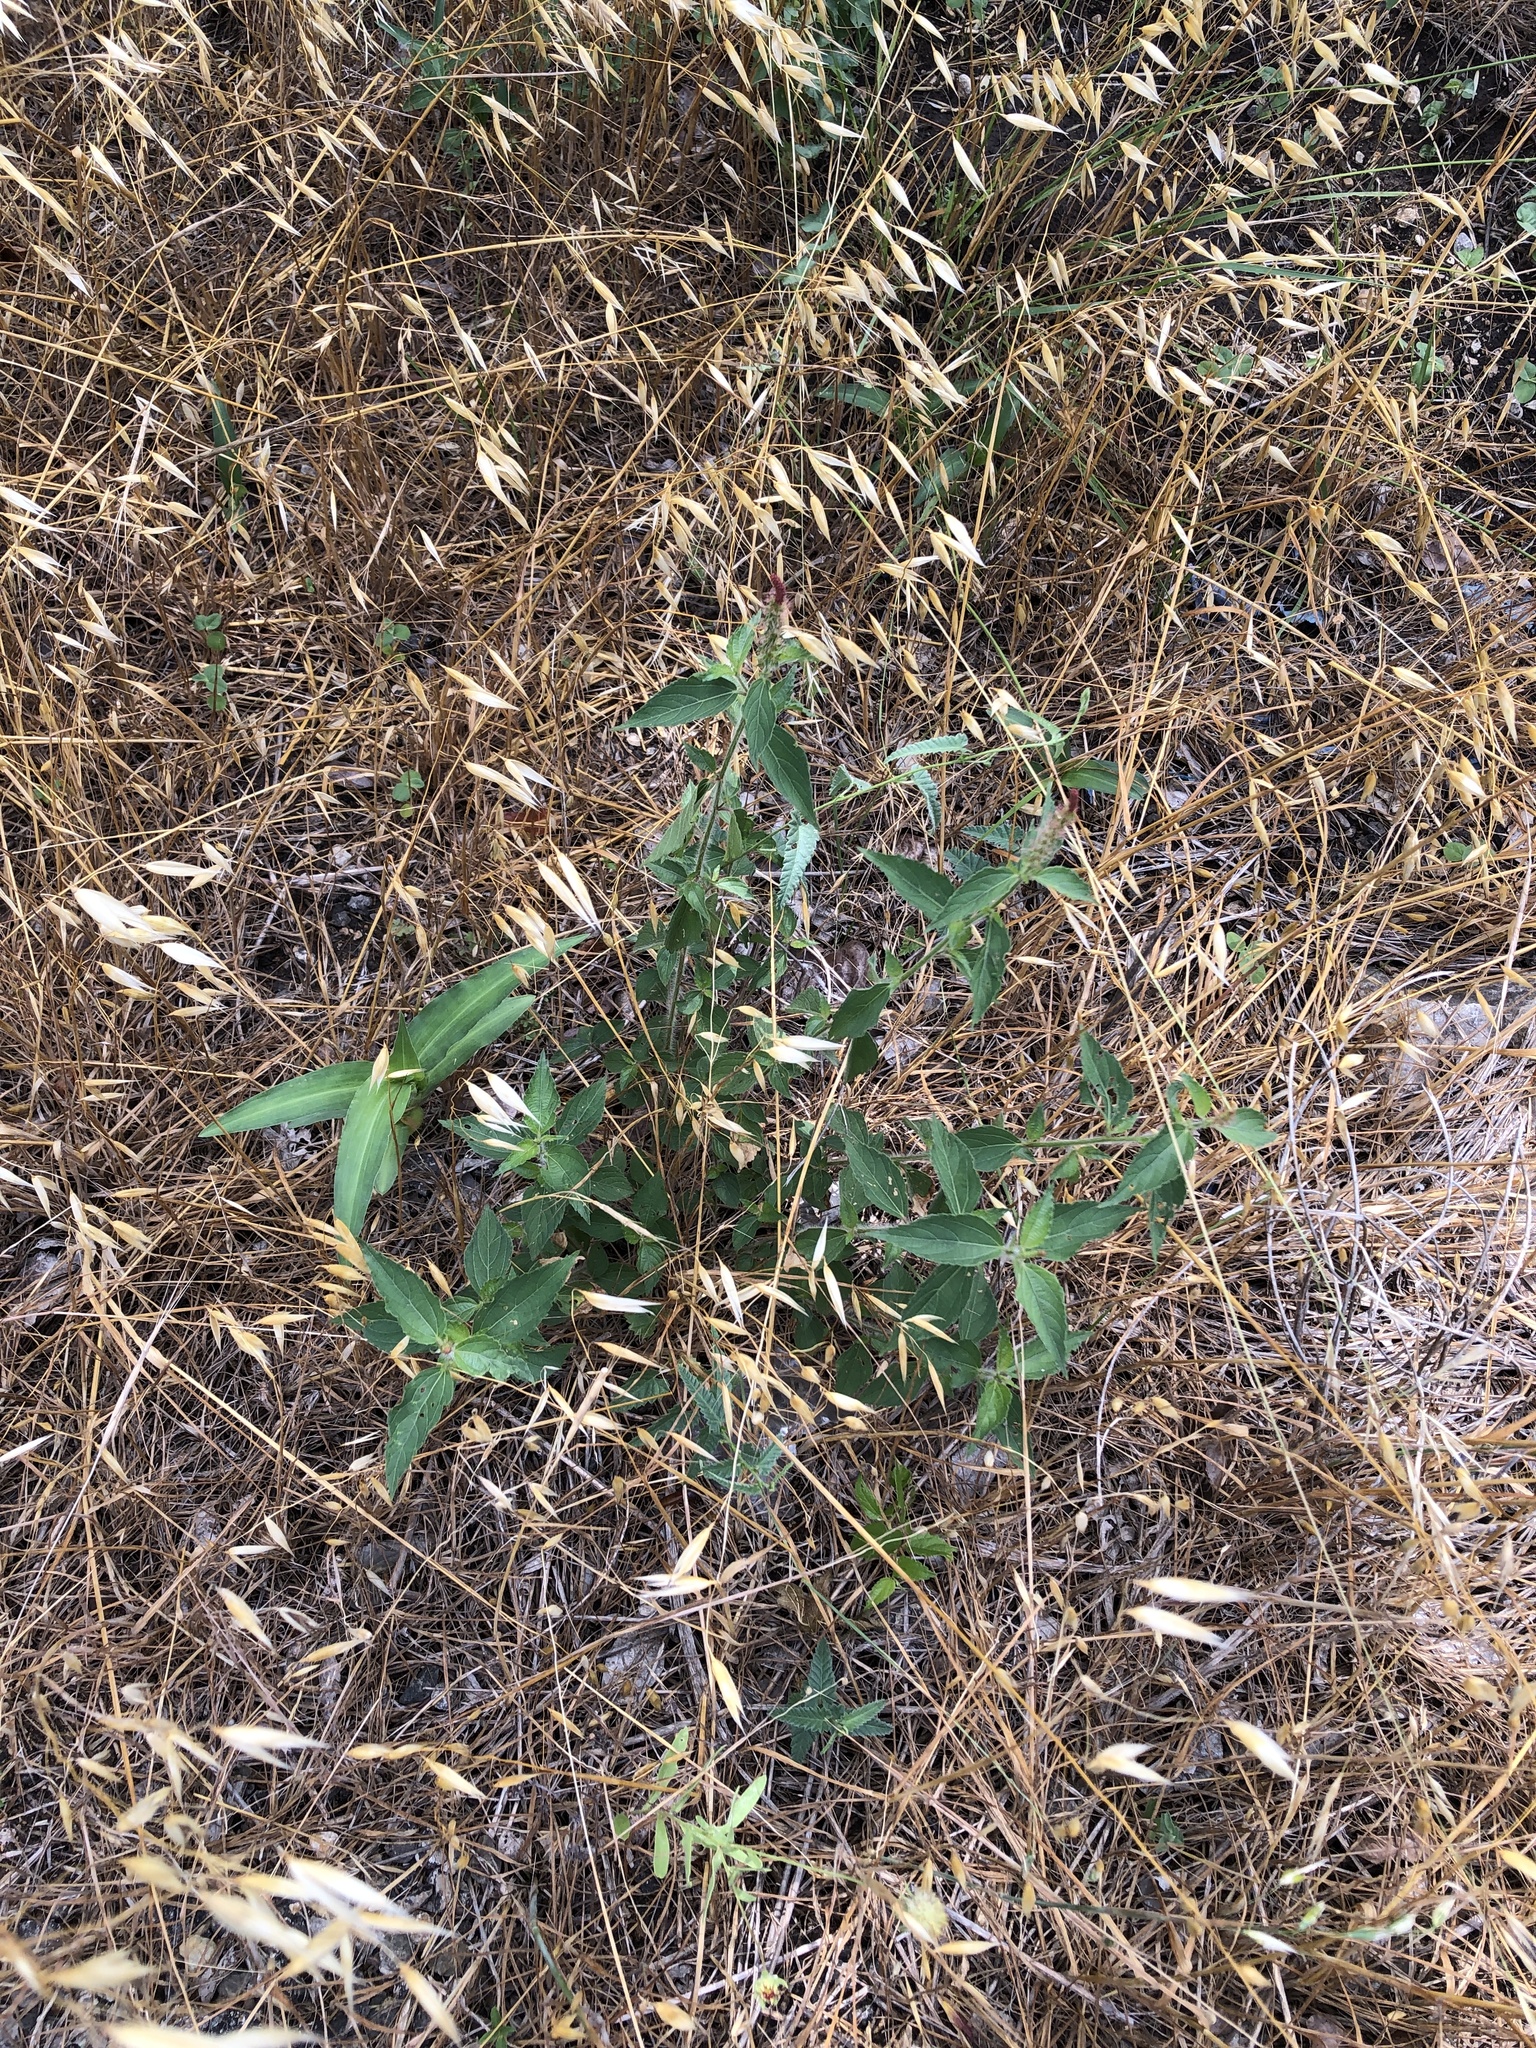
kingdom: Plantae
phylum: Tracheophyta
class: Magnoliopsida
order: Malpighiales
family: Euphorbiaceae
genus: Acalypha
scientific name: Acalypha phleoides
